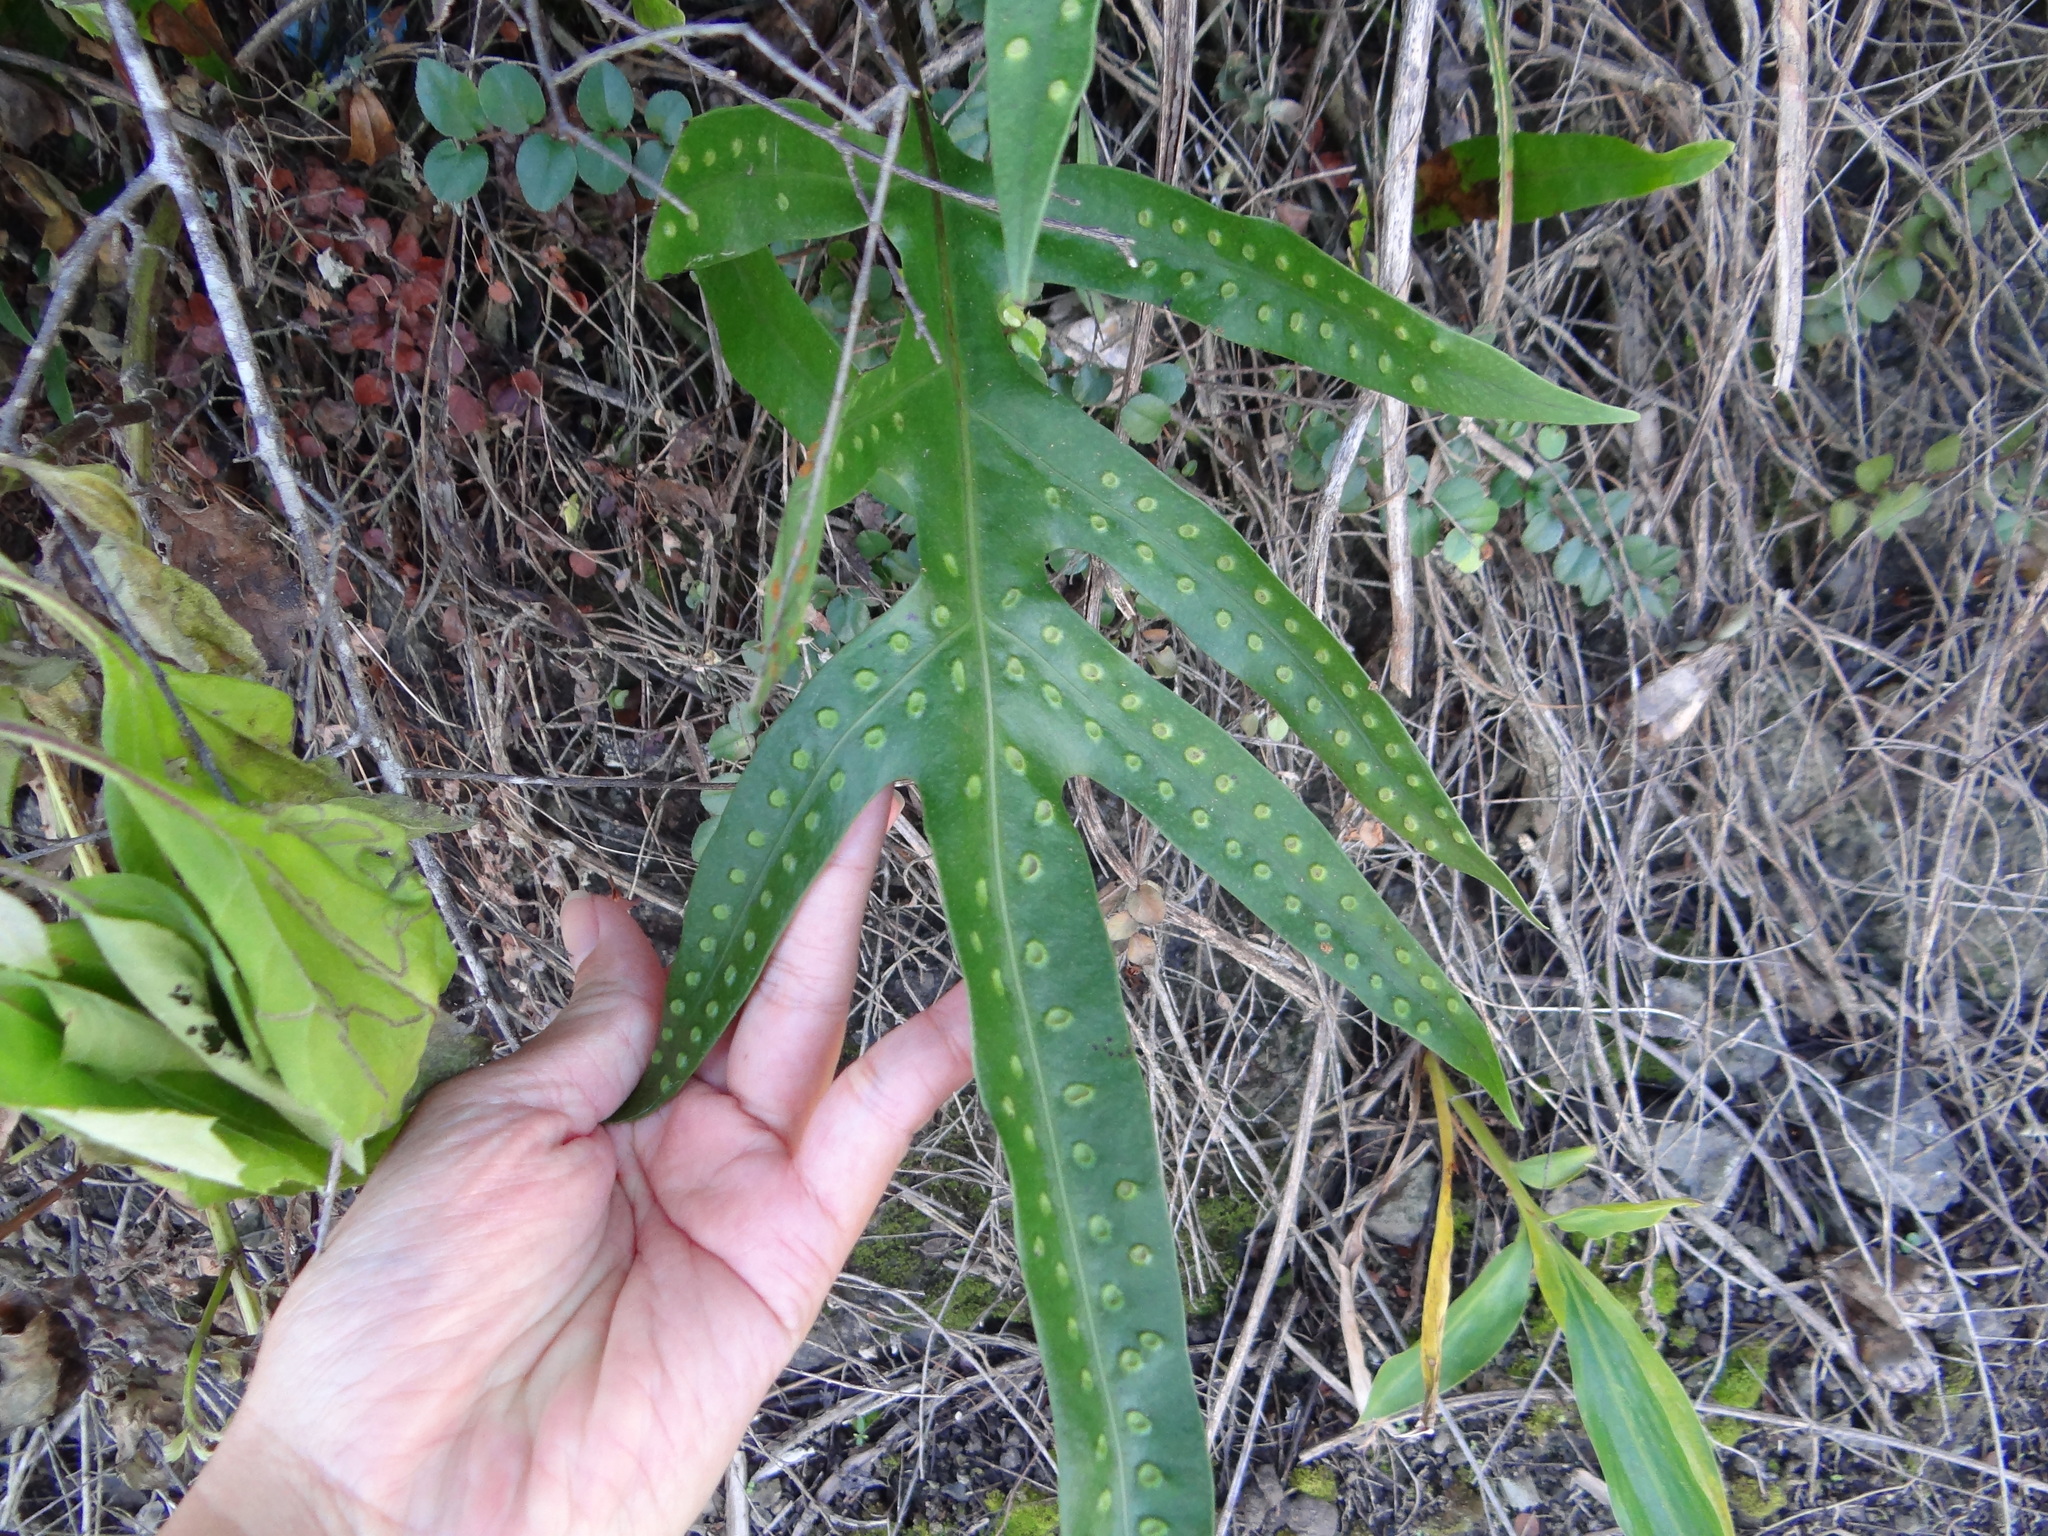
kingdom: Plantae
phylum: Tracheophyta
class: Polypodiopsida
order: Polypodiales
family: Polypodiaceae
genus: Microsorum
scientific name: Microsorum scolopendria
